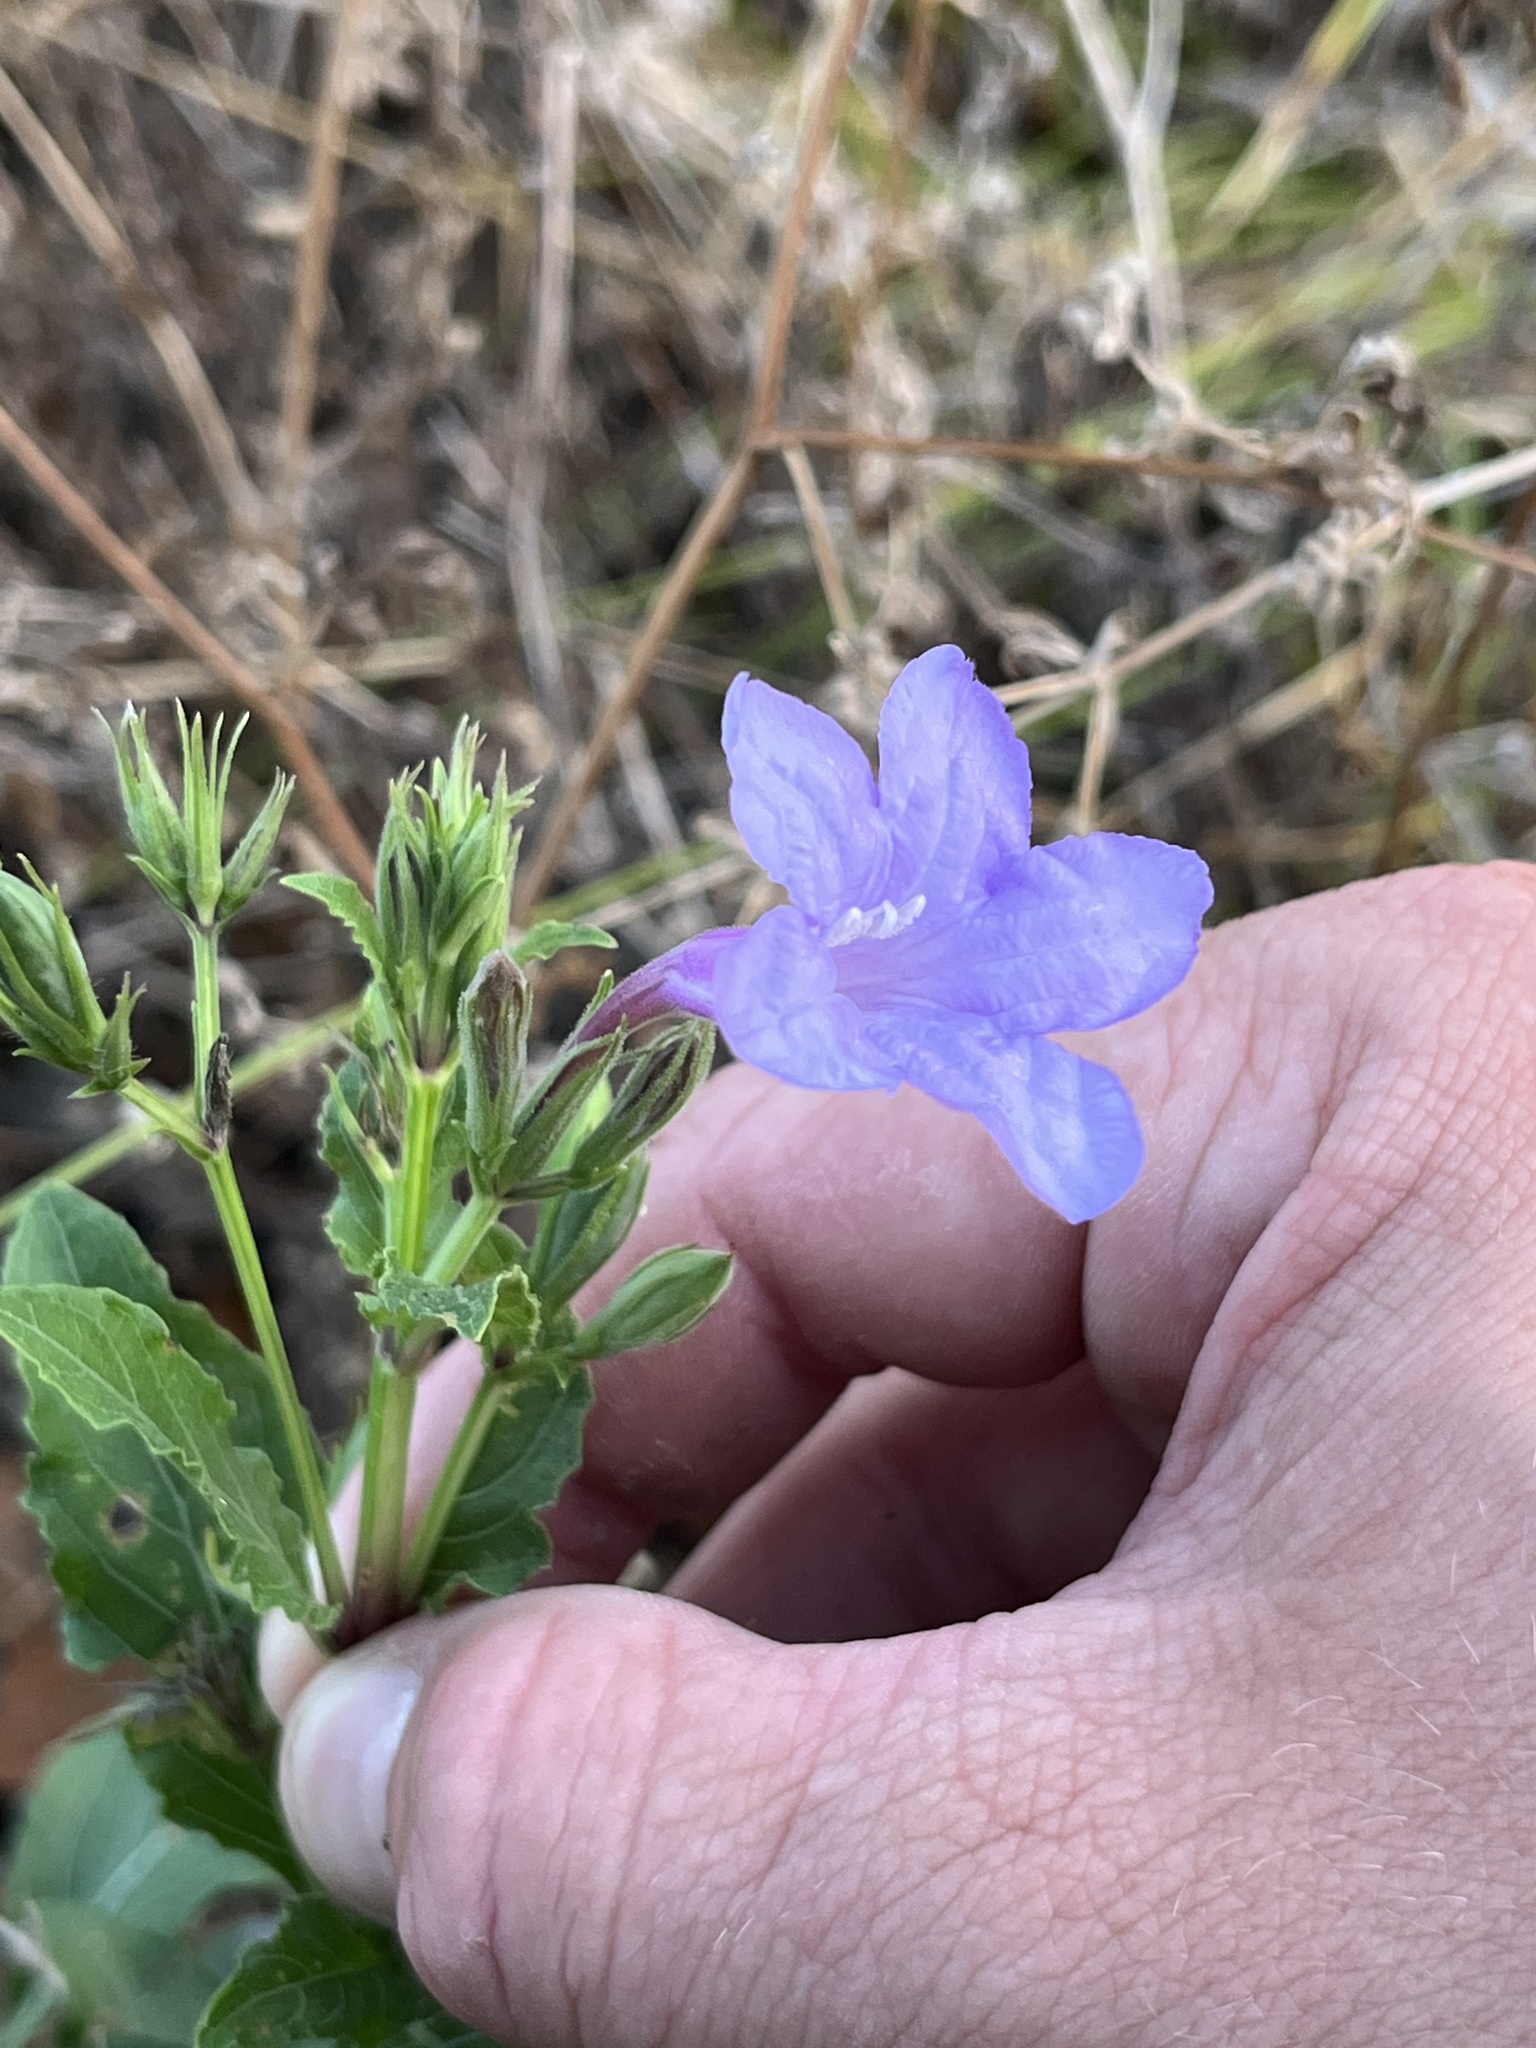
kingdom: Plantae
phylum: Tracheophyta
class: Magnoliopsida
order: Lamiales
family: Acanthaceae
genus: Ruellia
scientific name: Ruellia ciliatiflora
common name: Hairyflower wild petunia
